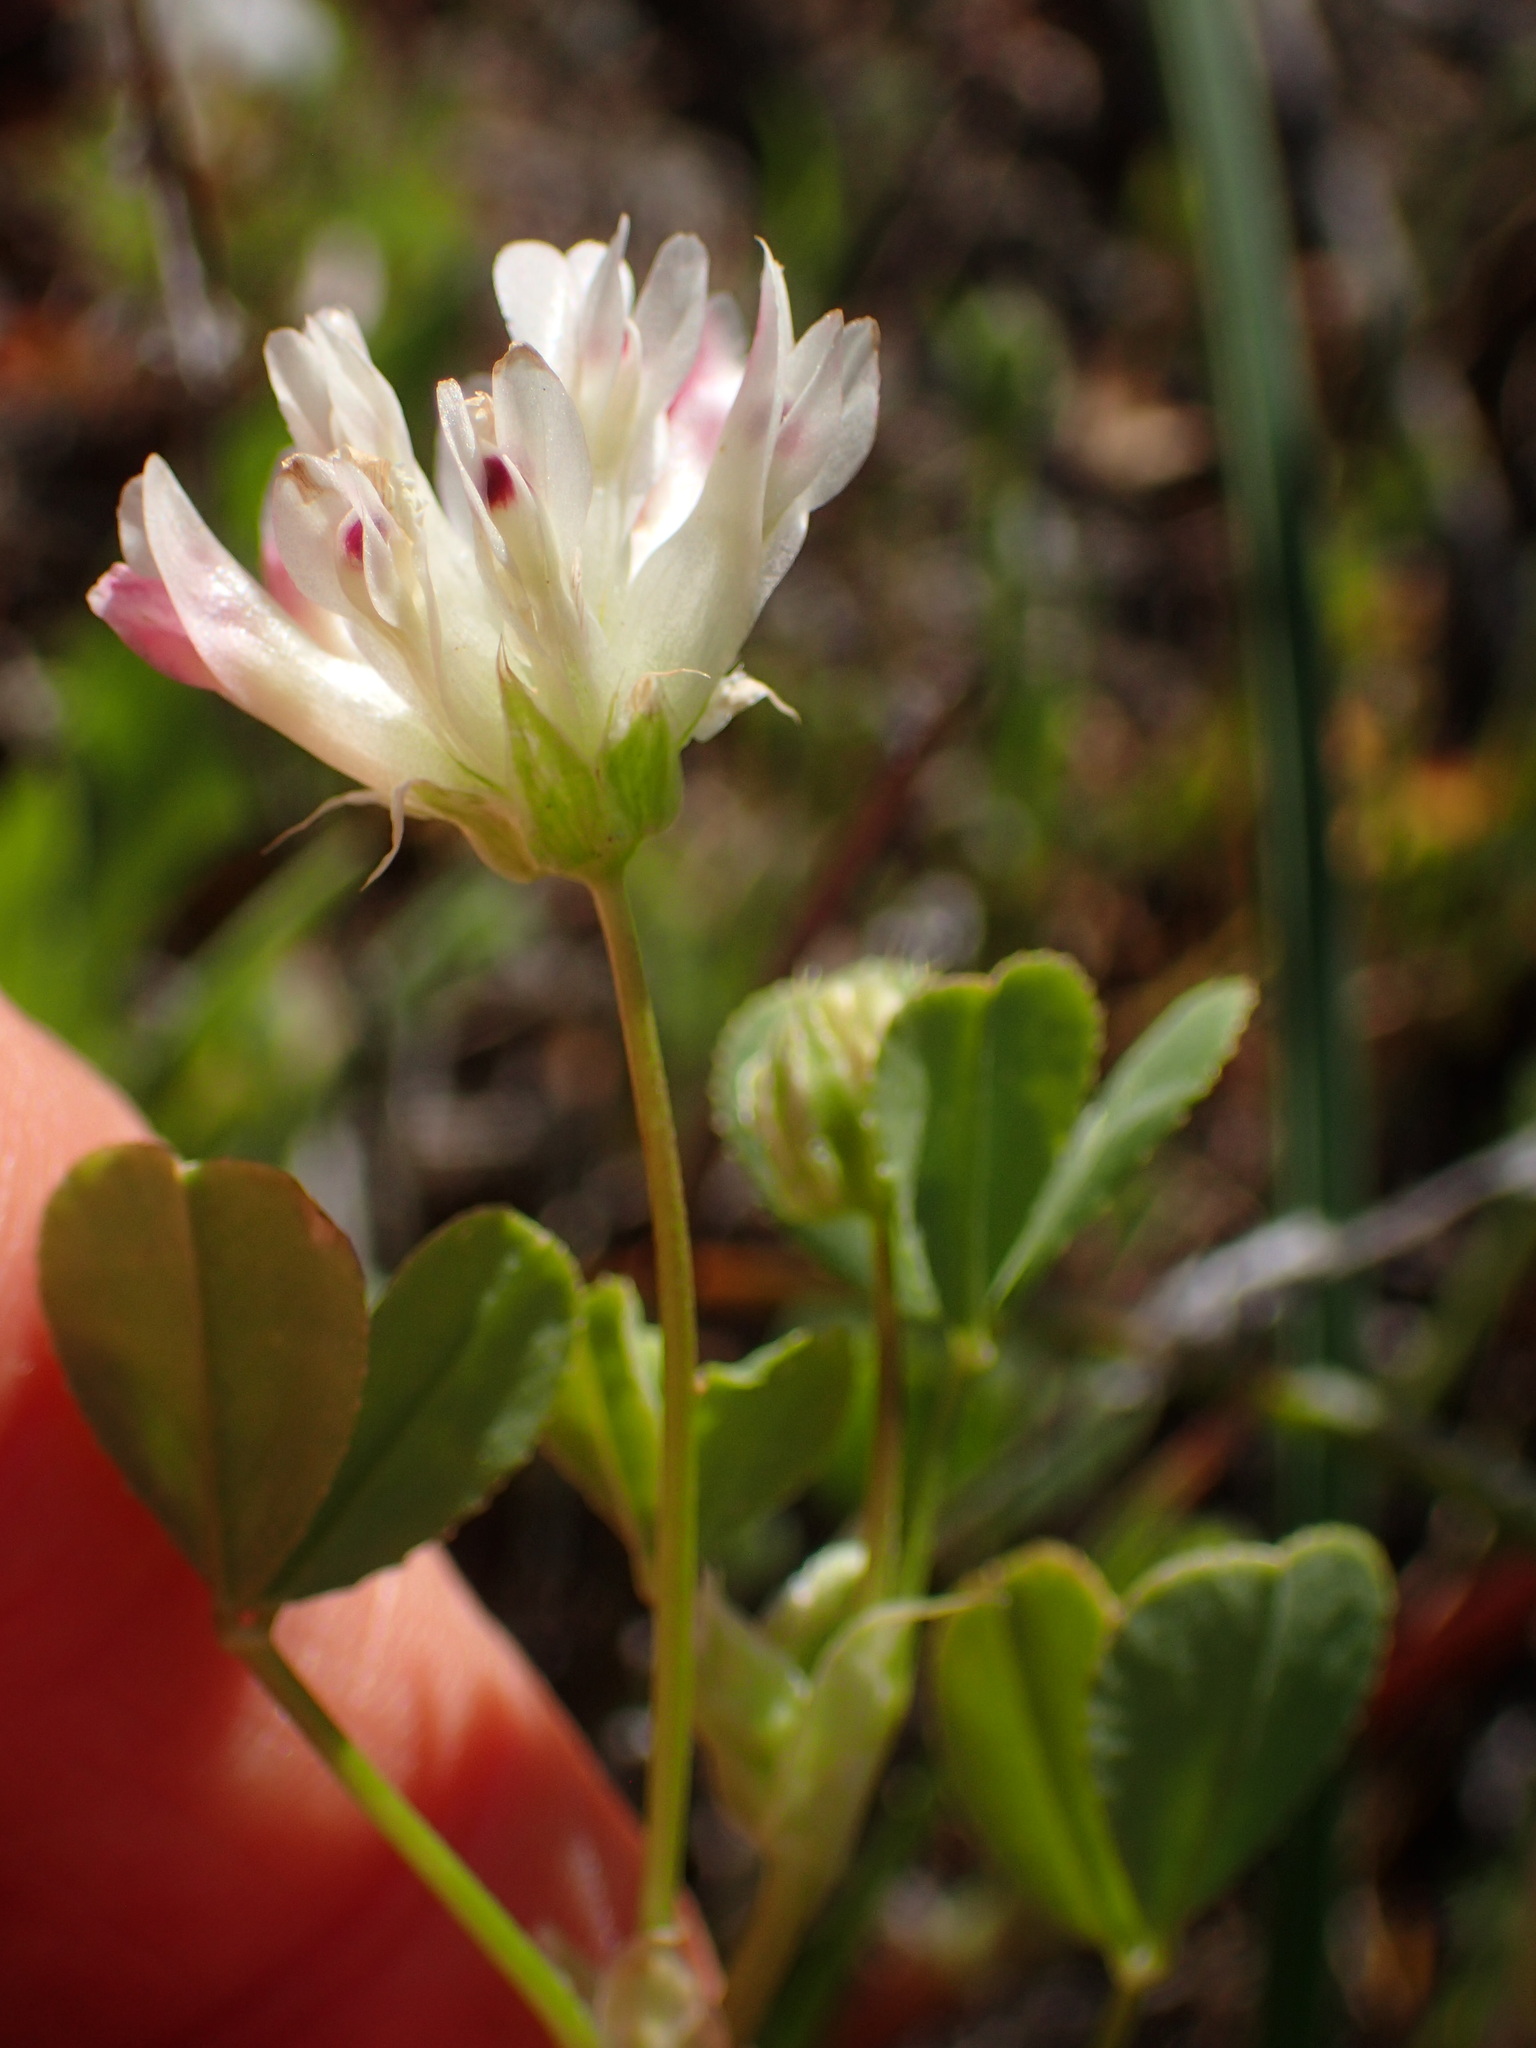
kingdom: Plantae
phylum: Tracheophyta
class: Magnoliopsida
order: Fabales
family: Fabaceae
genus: Trifolium
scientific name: Trifolium fucatum
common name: Puff clover
